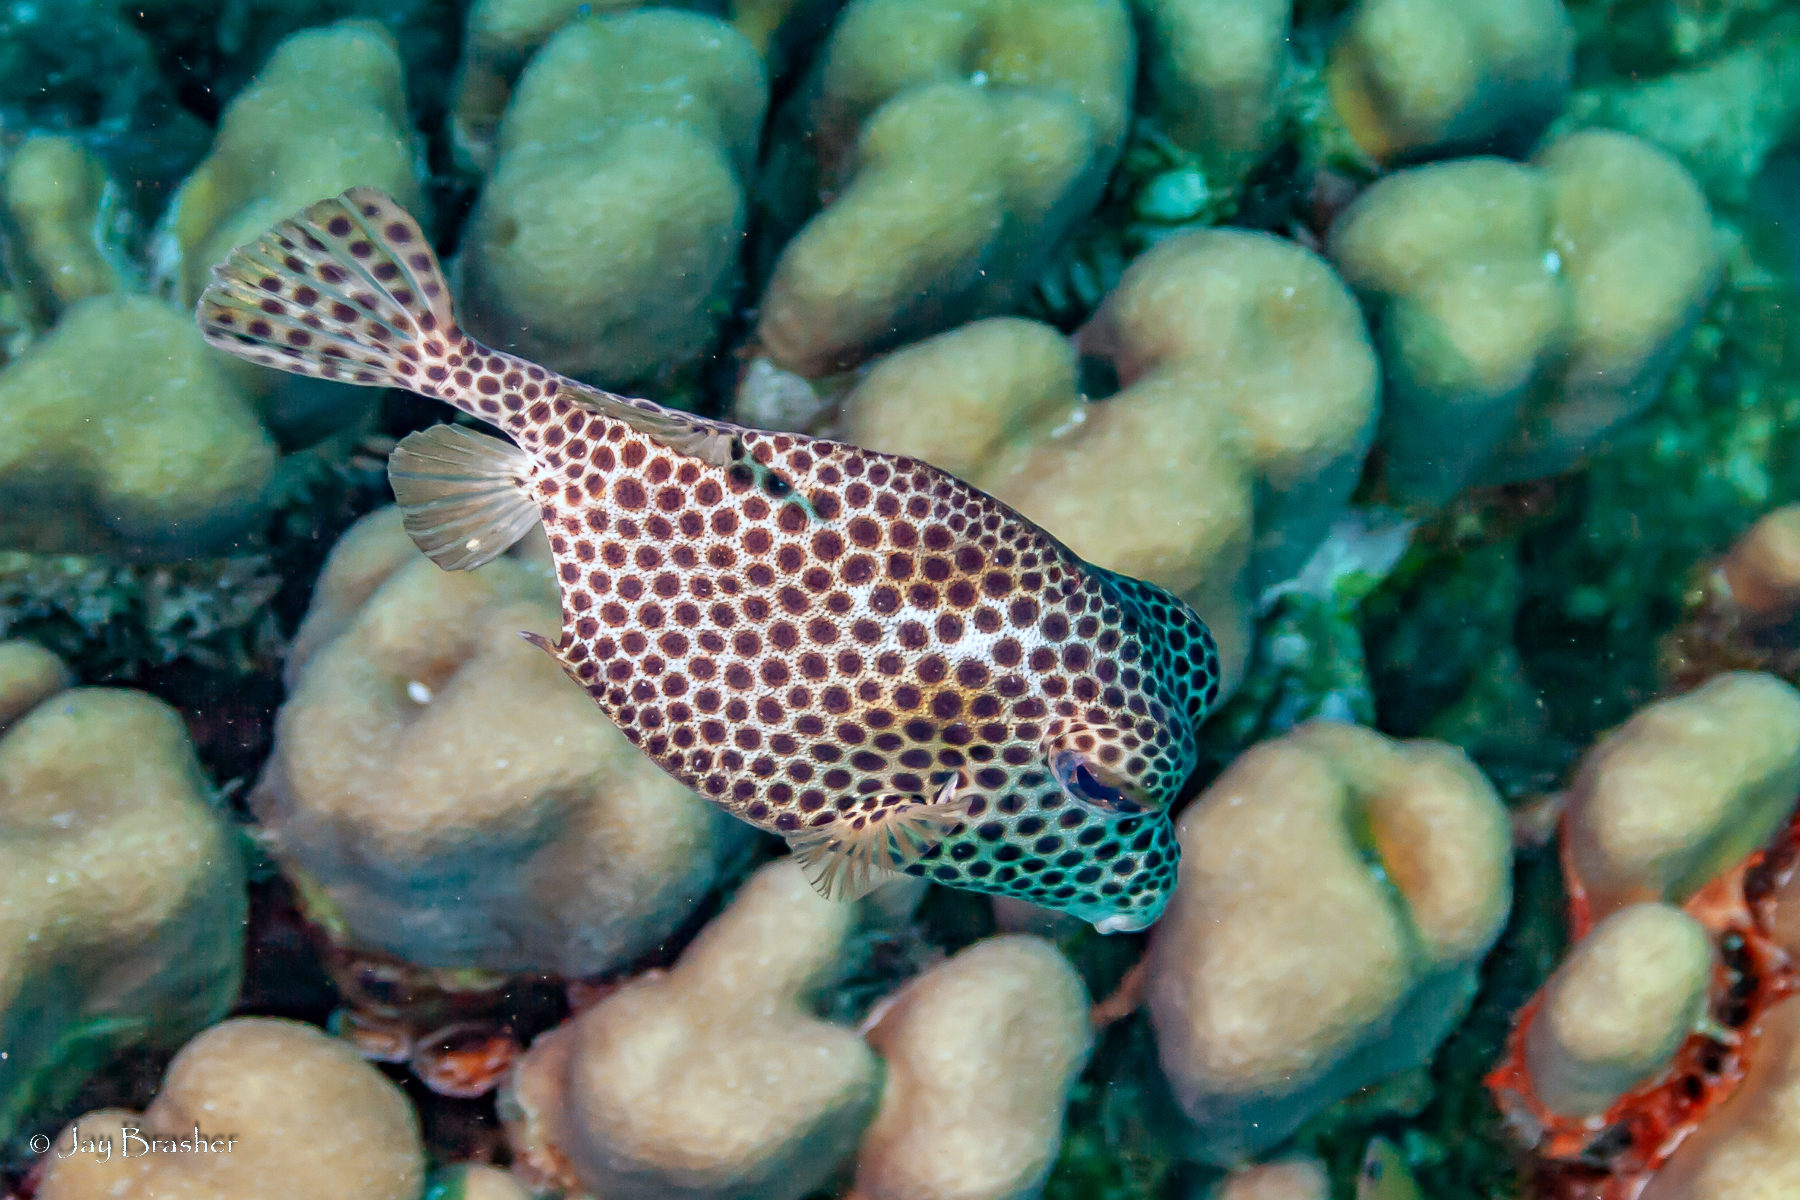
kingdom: Animalia
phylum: Chordata
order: Tetraodontiformes
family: Ostraciidae
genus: Lactophrys
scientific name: Lactophrys bicaudalis
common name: Spotted trunkfish
